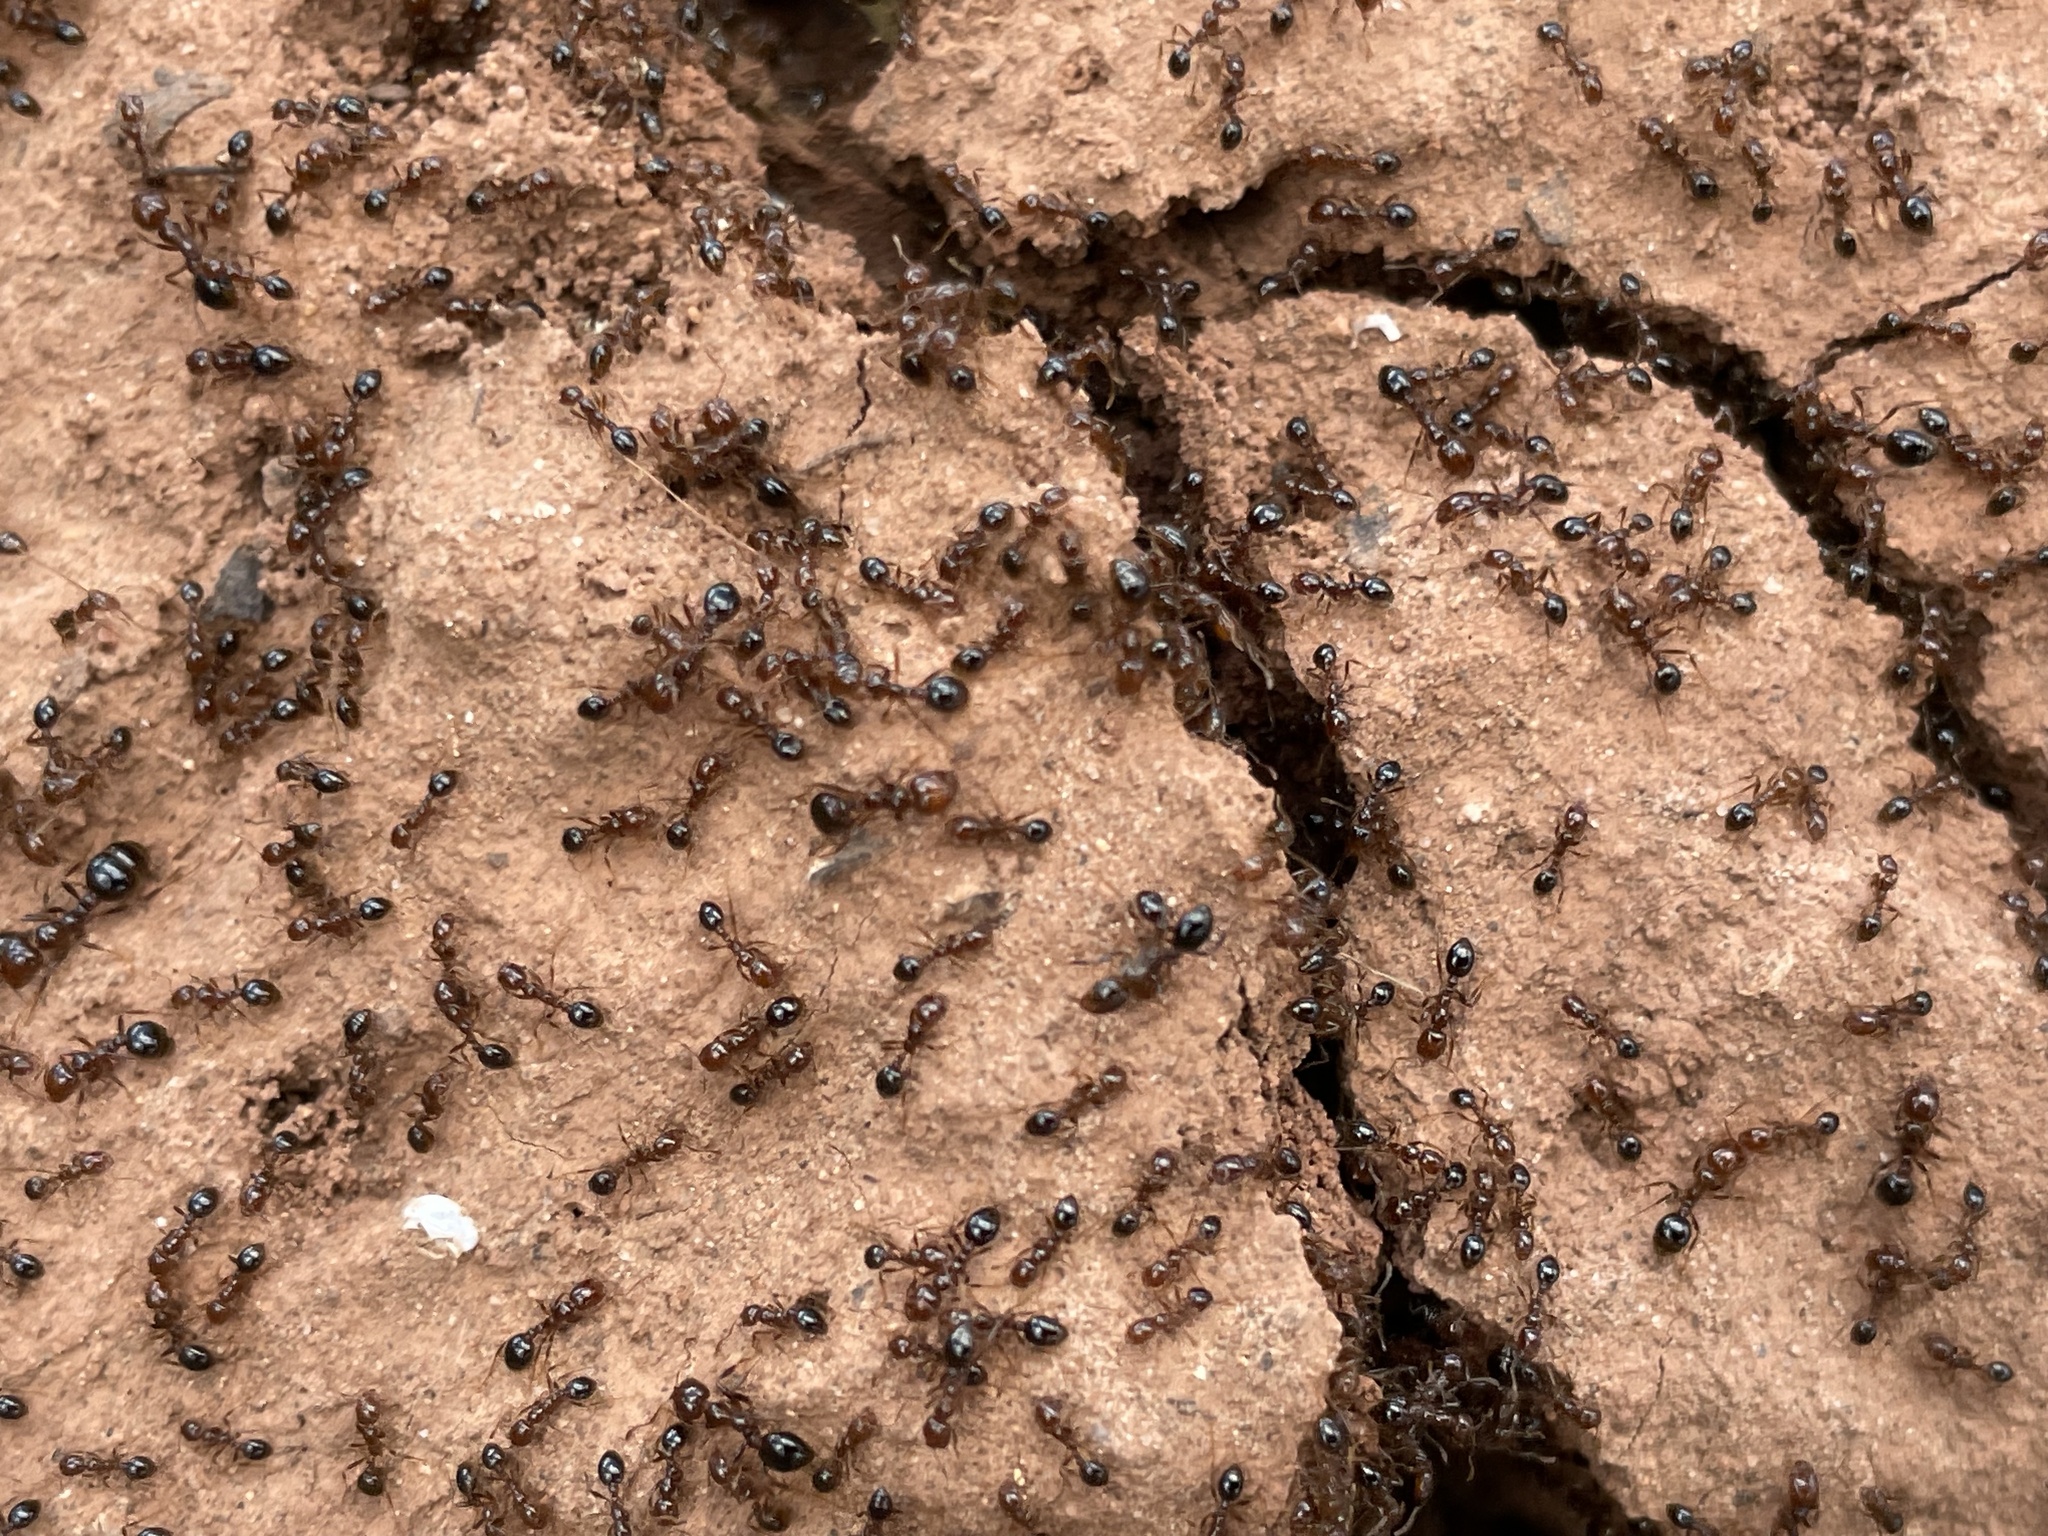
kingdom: Animalia
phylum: Arthropoda
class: Insecta
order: Hymenoptera
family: Formicidae
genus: Solenopsis
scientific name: Solenopsis invicta
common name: Red imported fire ant
